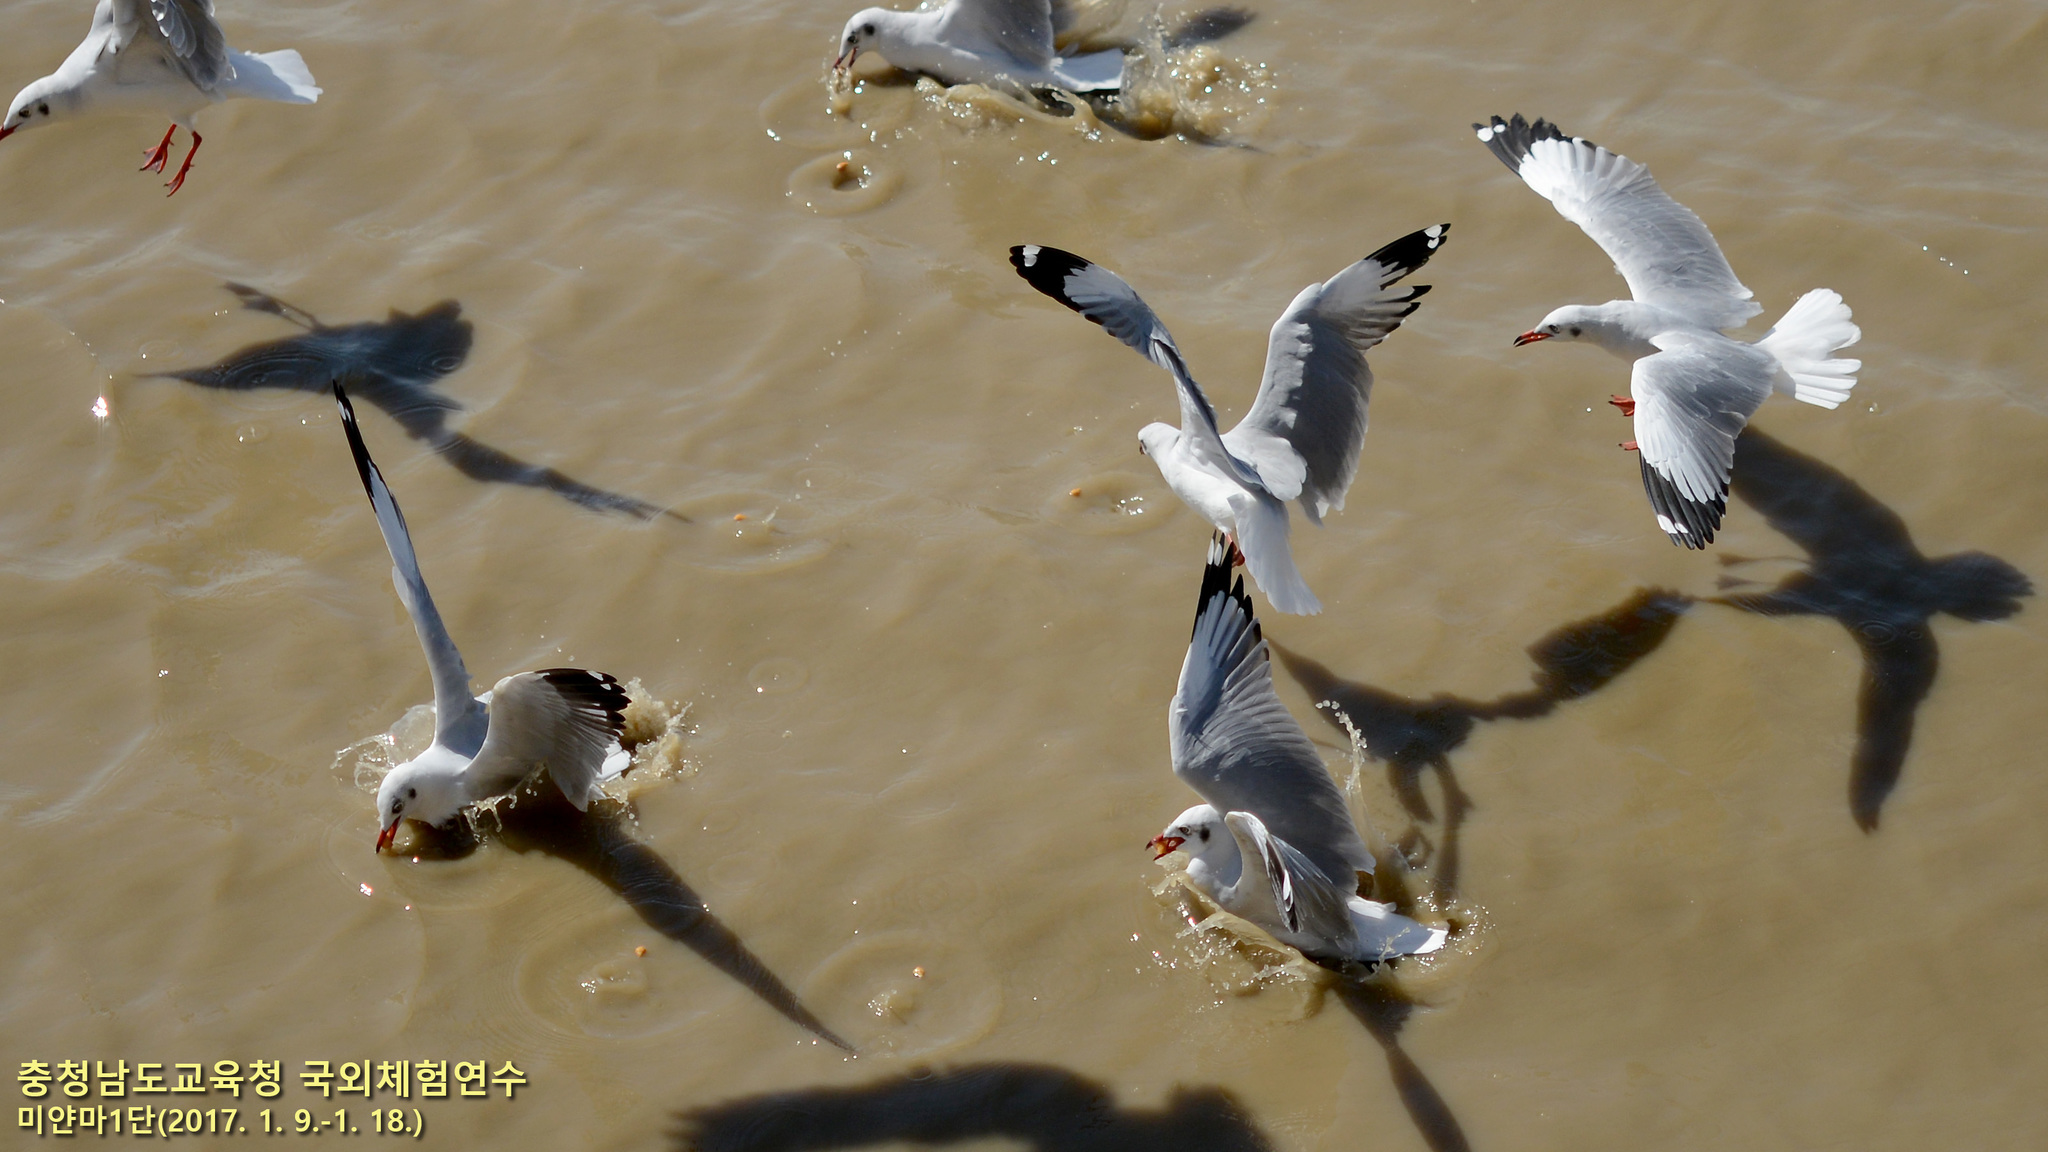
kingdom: Animalia
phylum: Chordata
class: Aves
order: Charadriiformes
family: Laridae
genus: Chroicocephalus
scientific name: Chroicocephalus brunnicephalus
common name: Brown-headed gull
